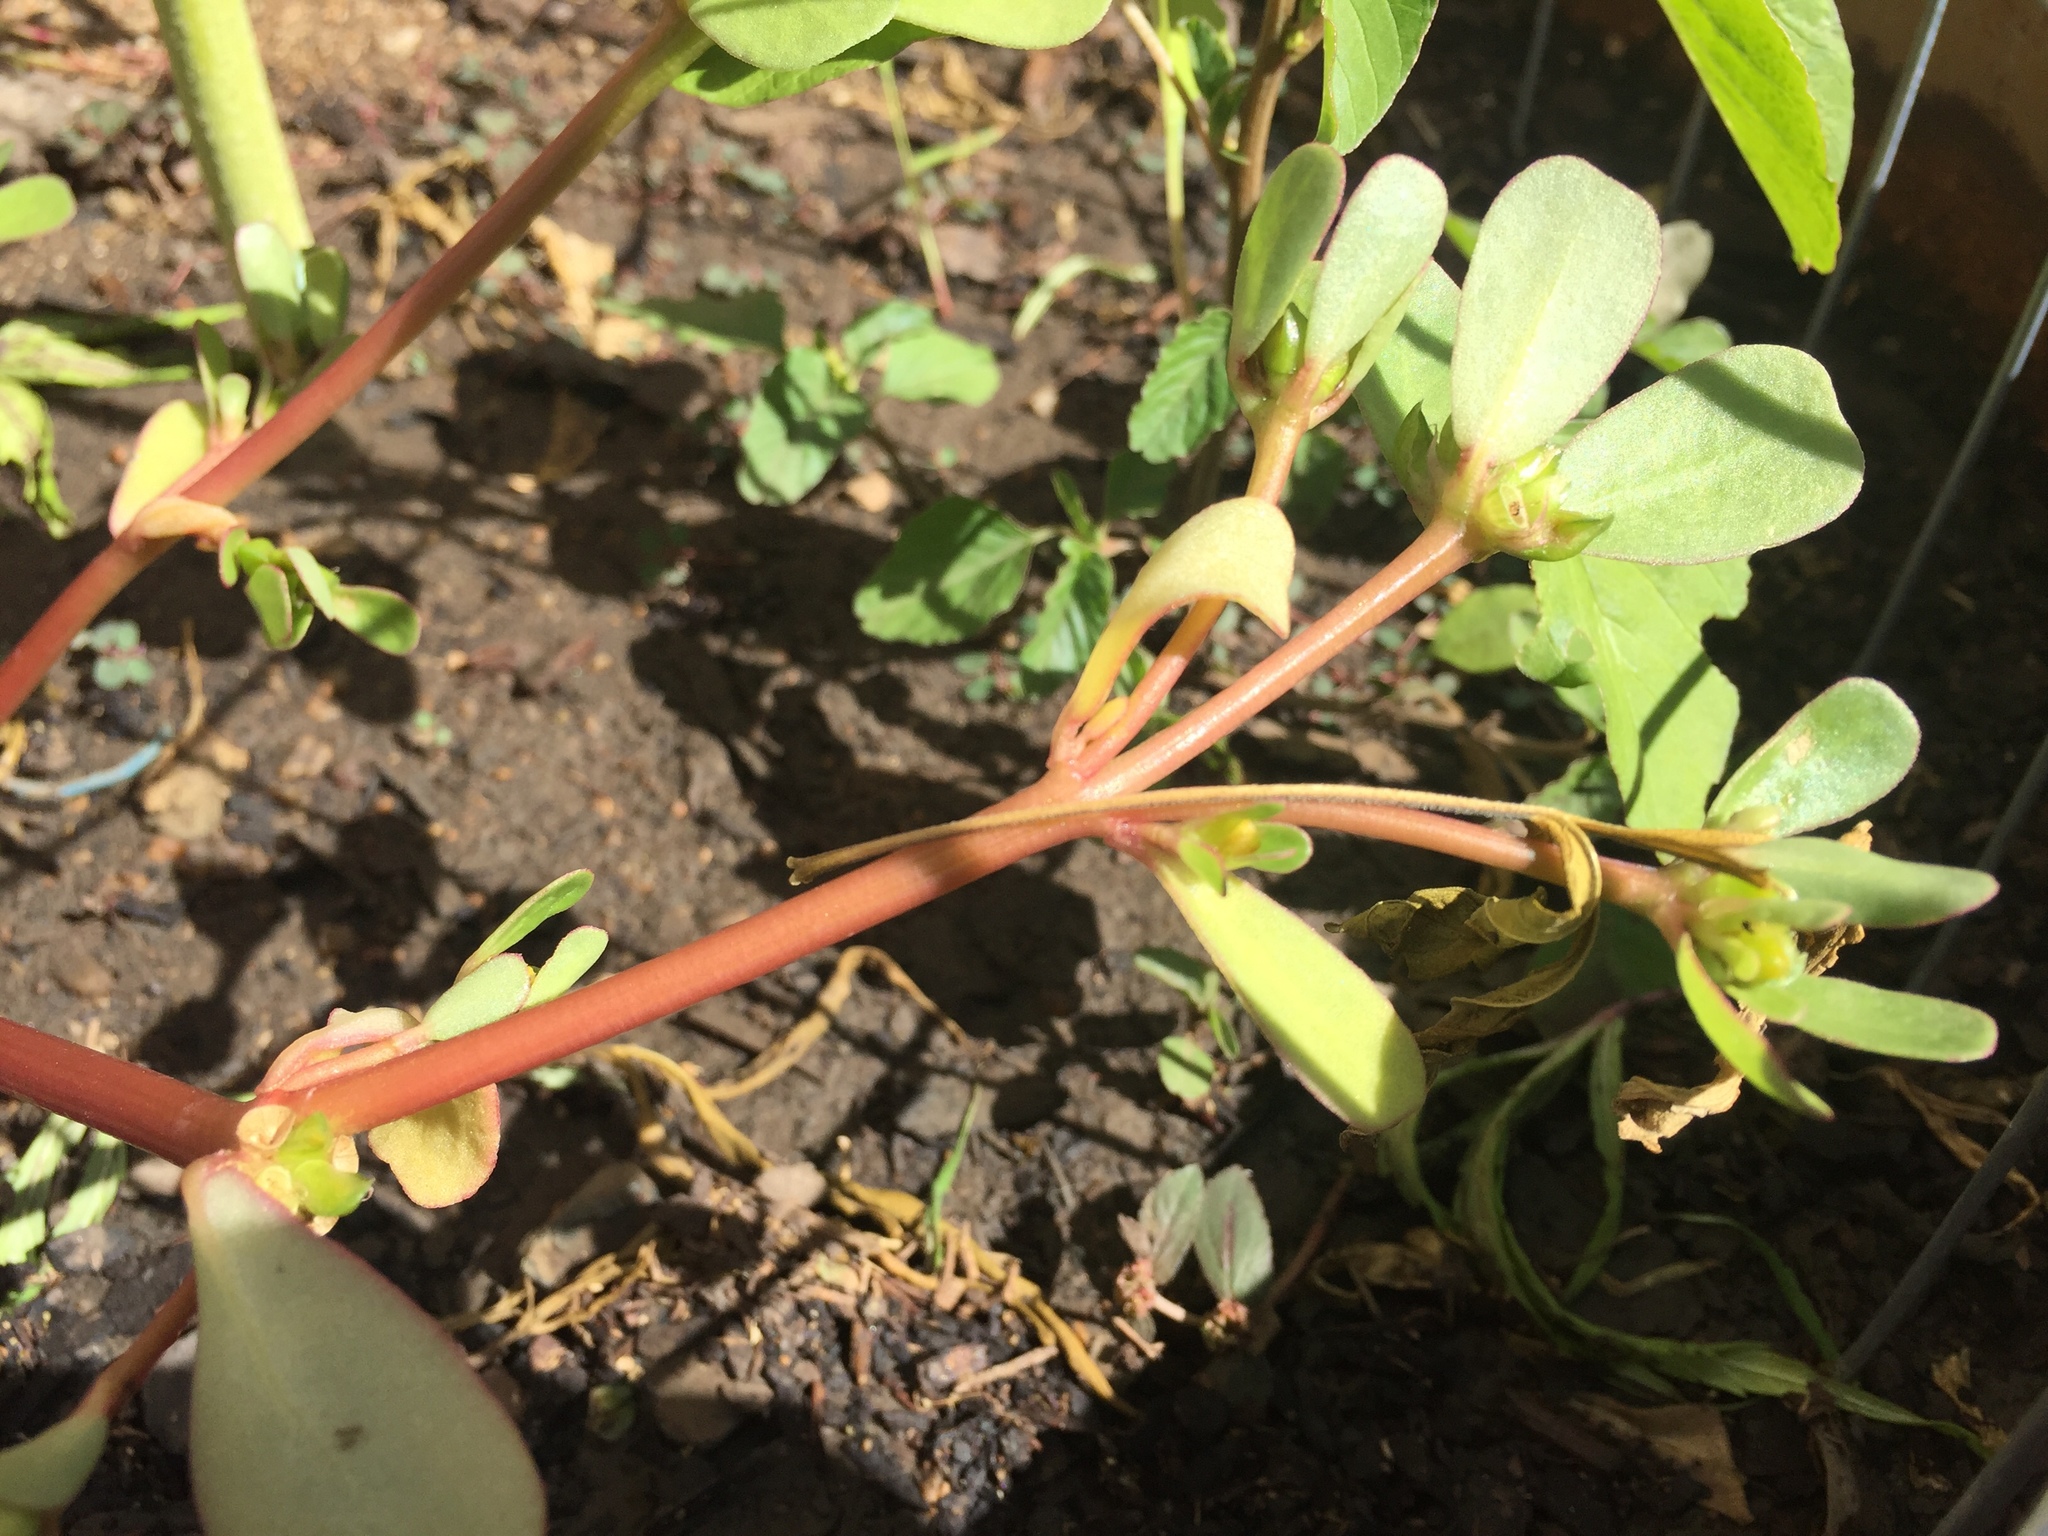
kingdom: Plantae
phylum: Tracheophyta
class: Magnoliopsida
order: Caryophyllales
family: Portulacaceae
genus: Portulaca
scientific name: Portulaca oleracea
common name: Common purslane
